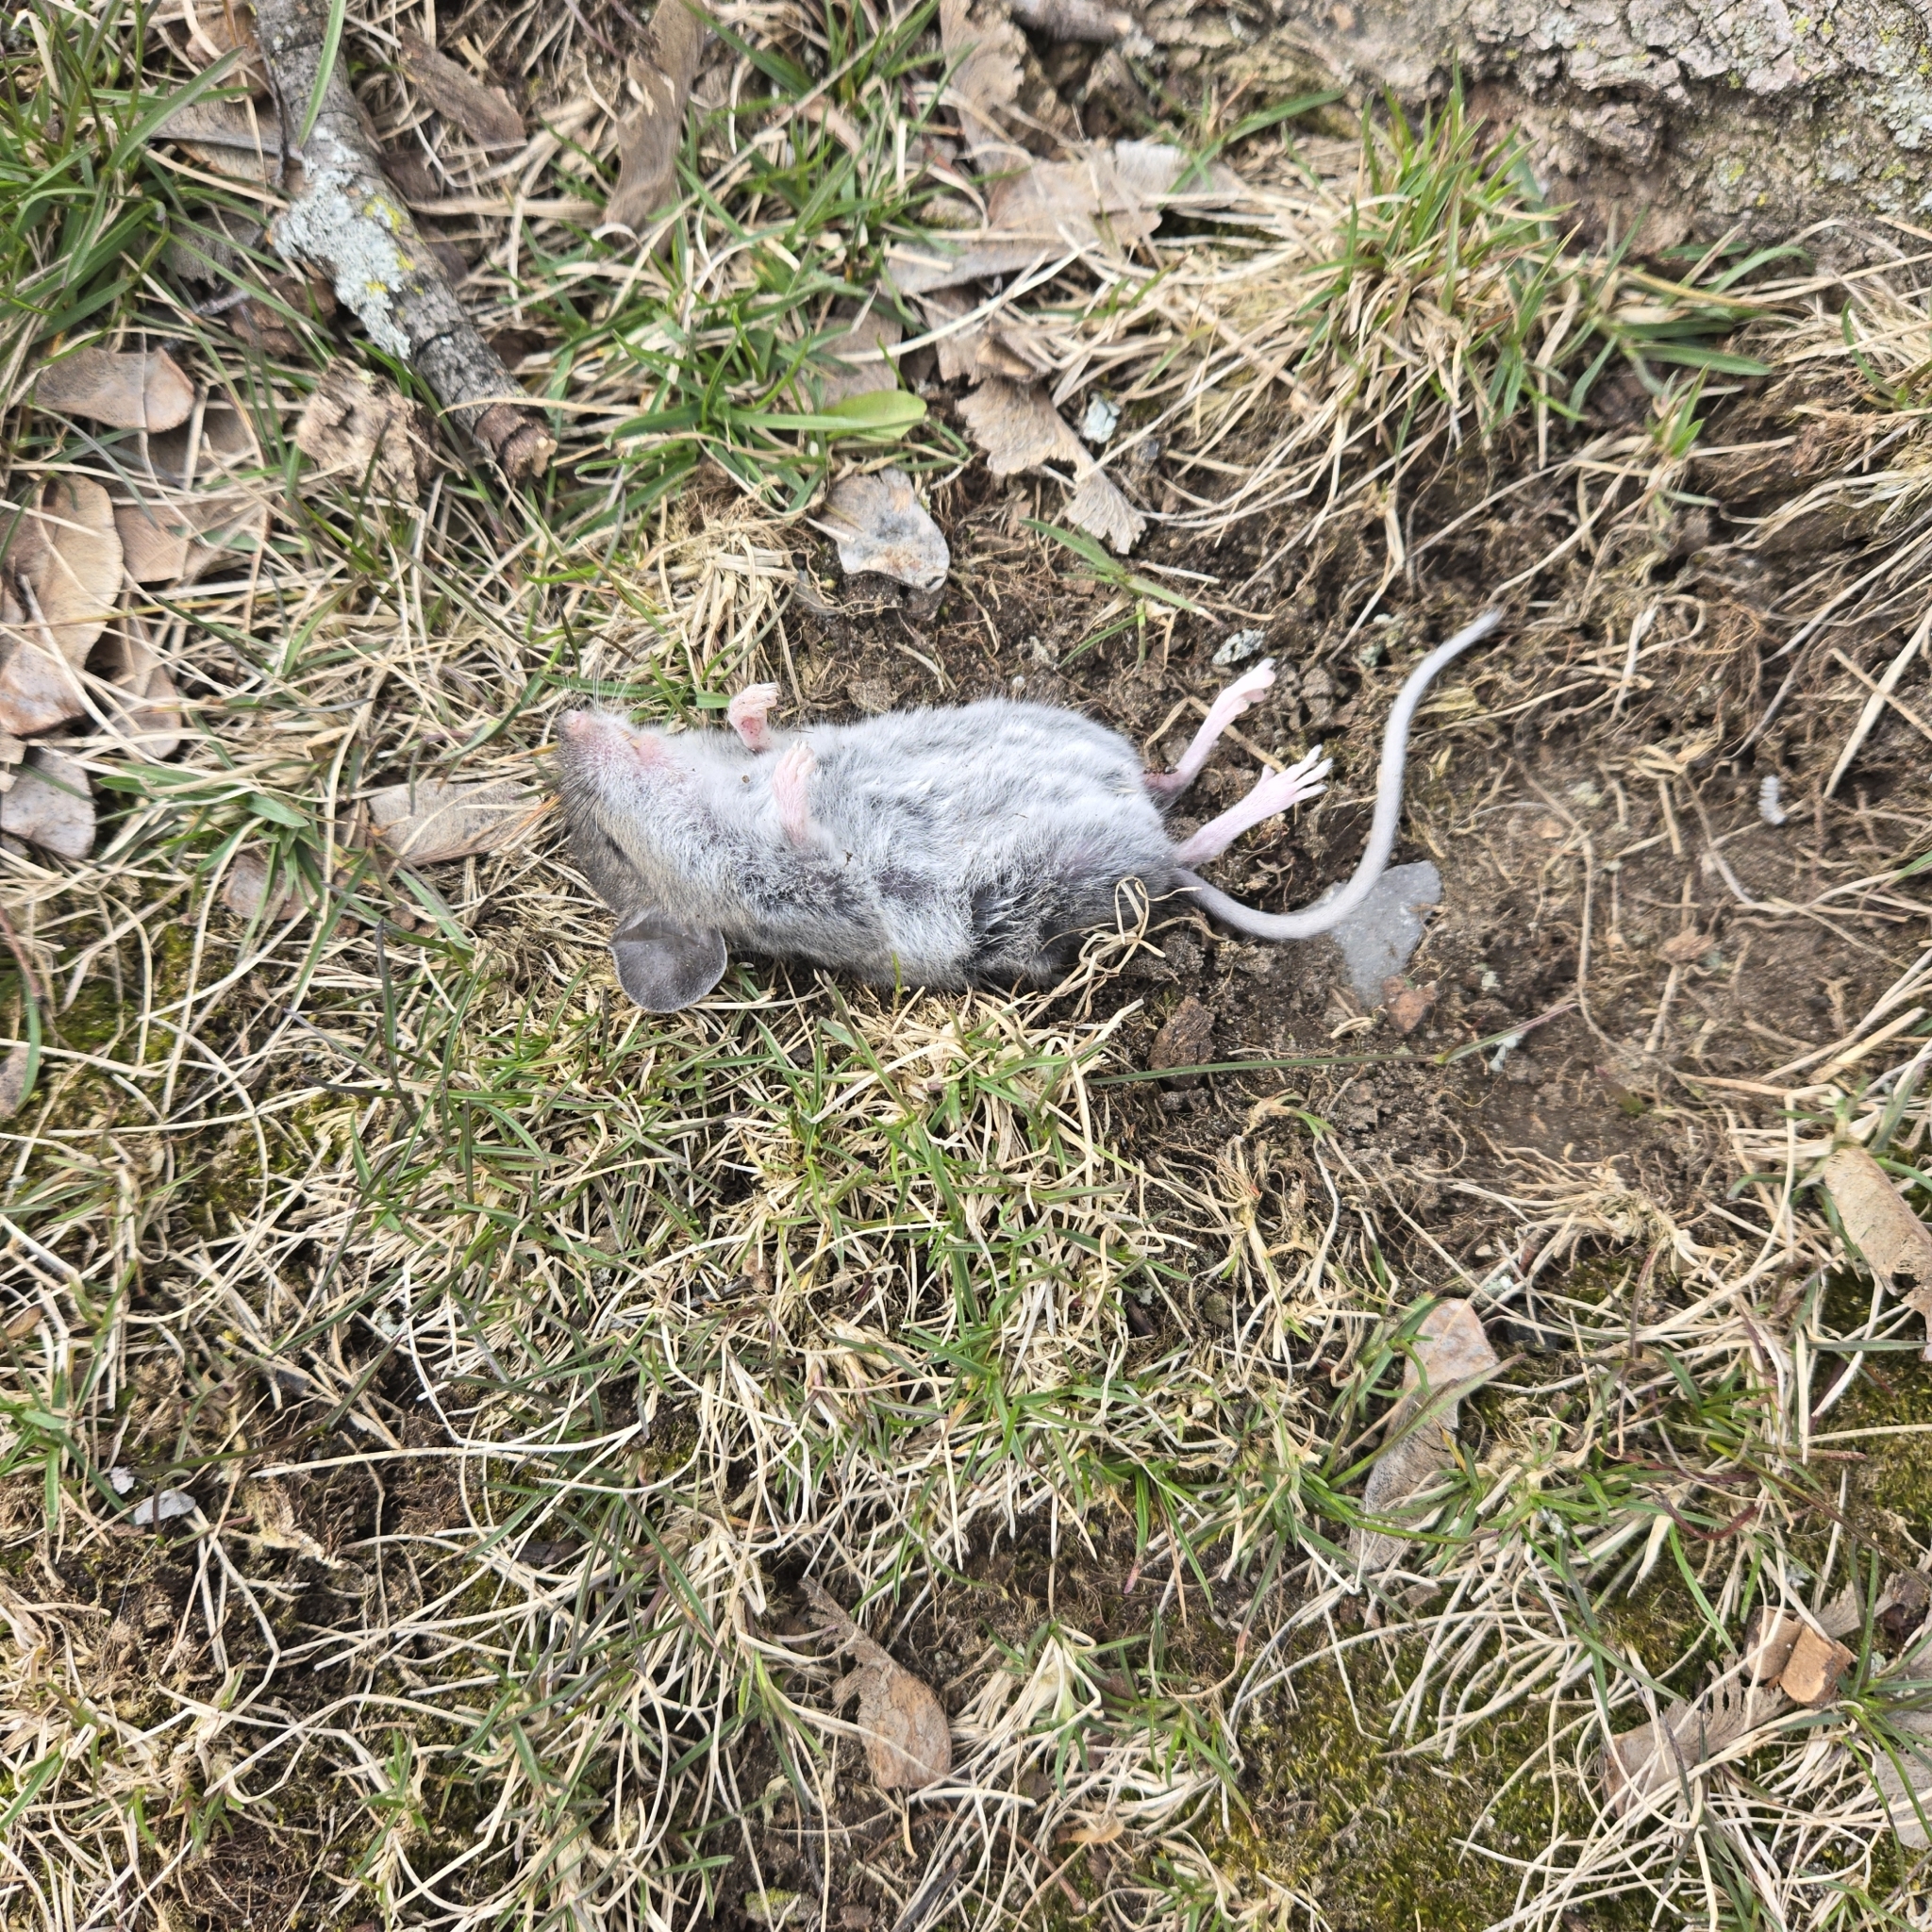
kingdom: Animalia
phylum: Chordata
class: Mammalia
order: Rodentia
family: Cricetidae
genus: Peromyscus
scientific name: Peromyscus maniculatus
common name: Deer mouse
